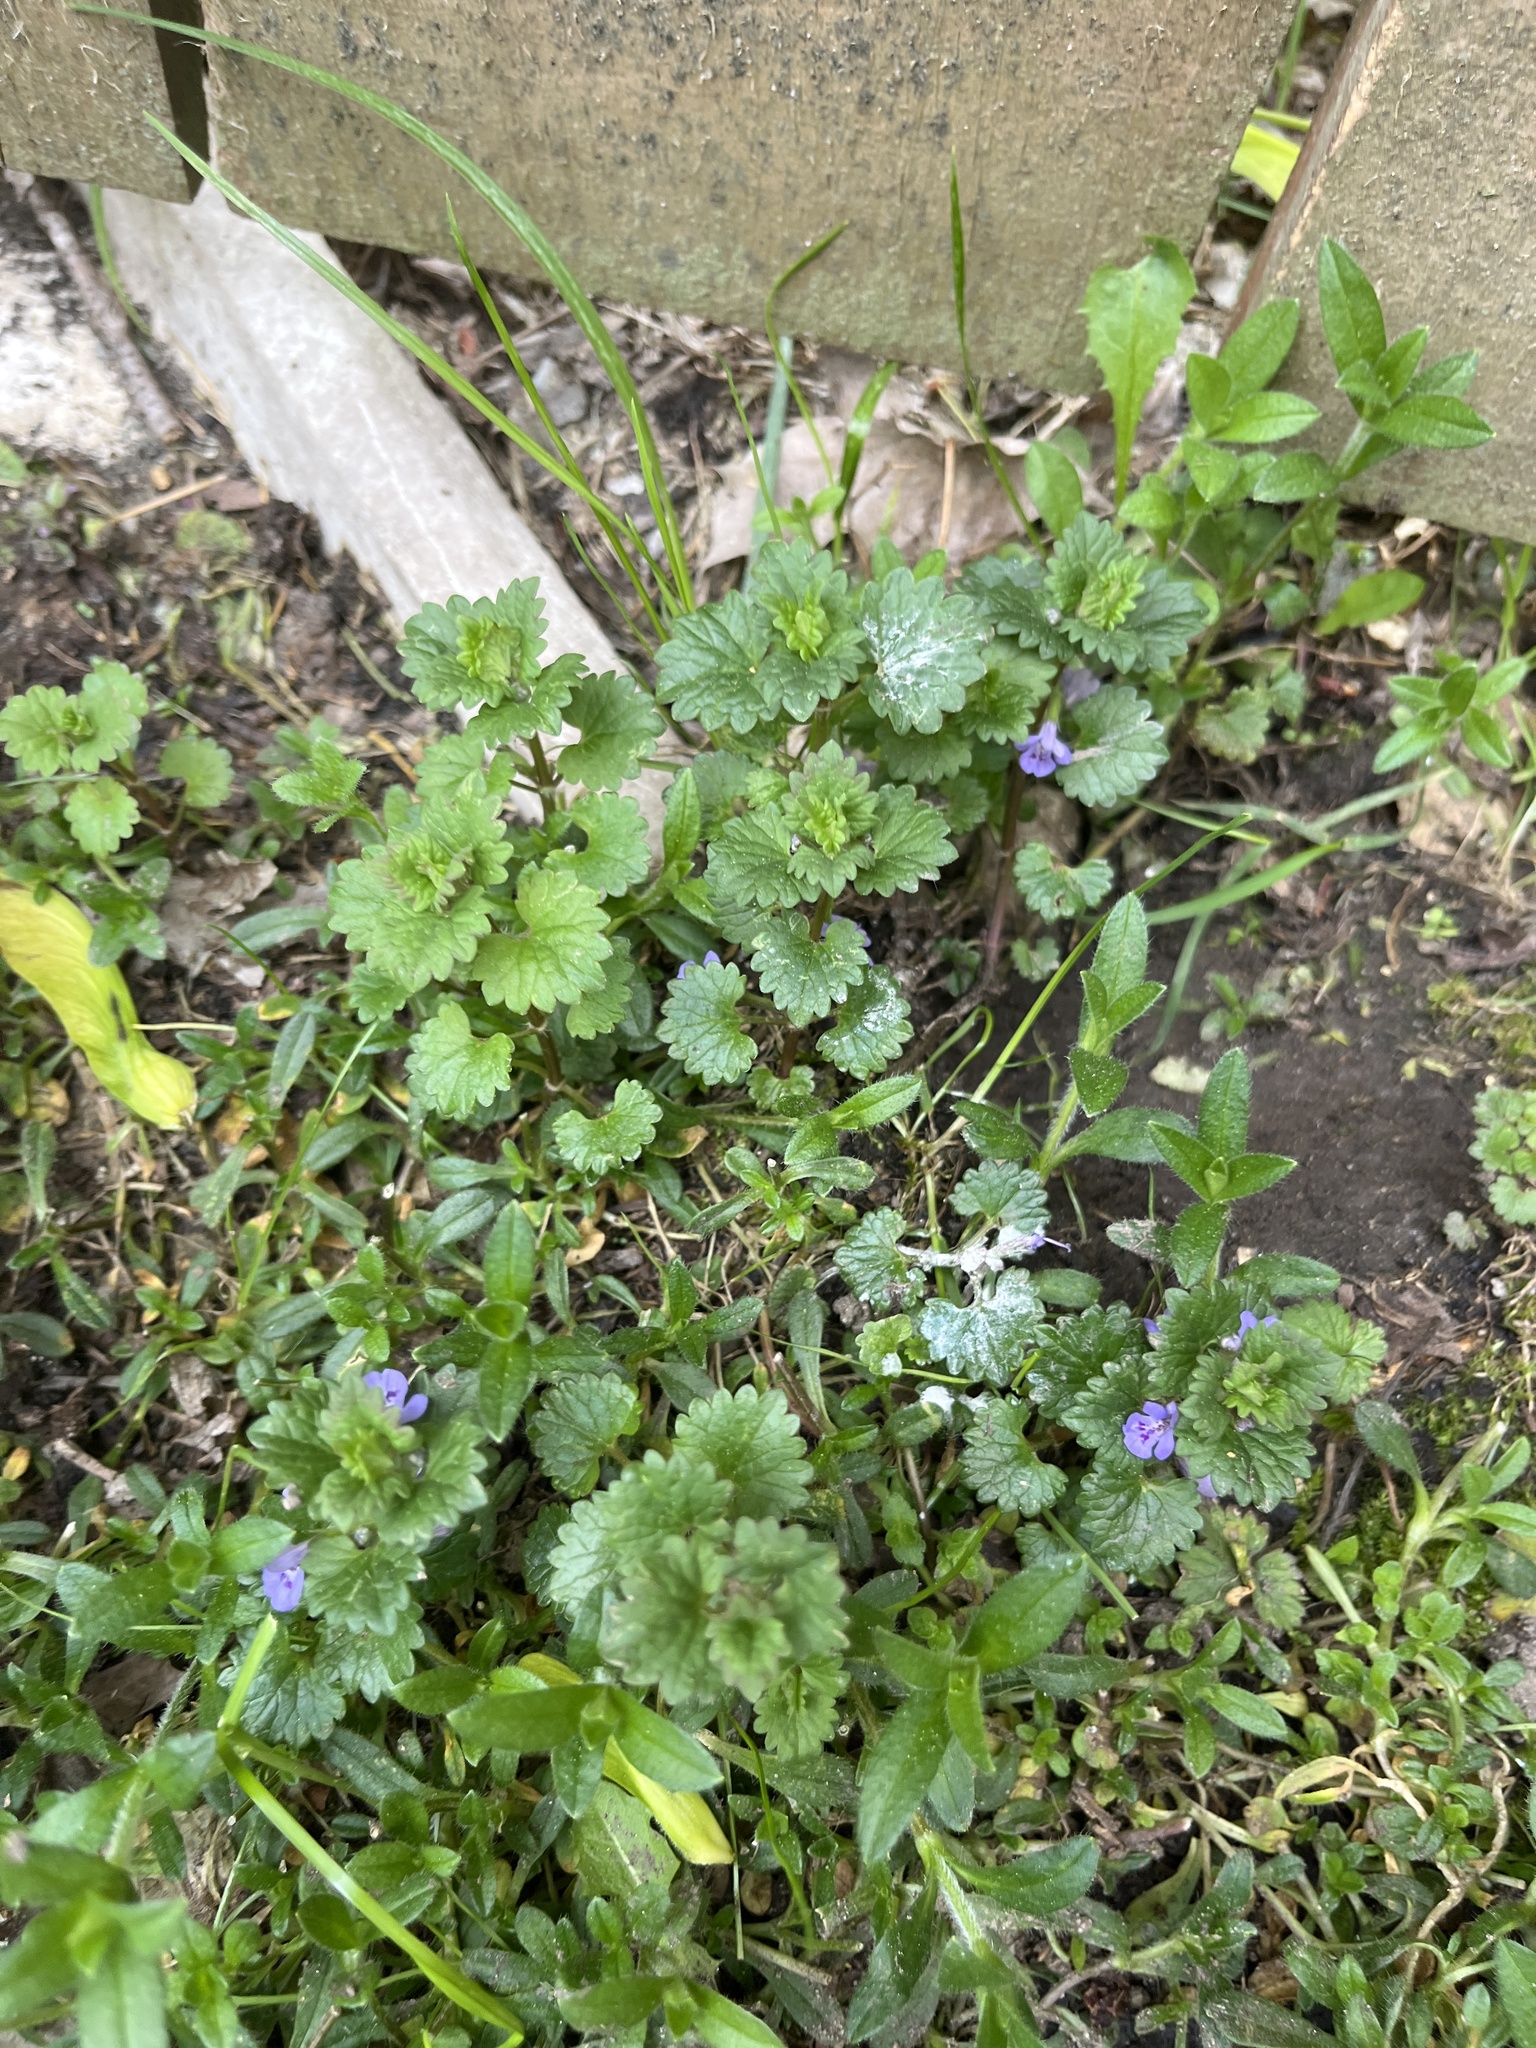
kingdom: Plantae
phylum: Tracheophyta
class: Magnoliopsida
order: Lamiales
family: Lamiaceae
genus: Glechoma
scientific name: Glechoma hederacea
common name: Ground ivy
